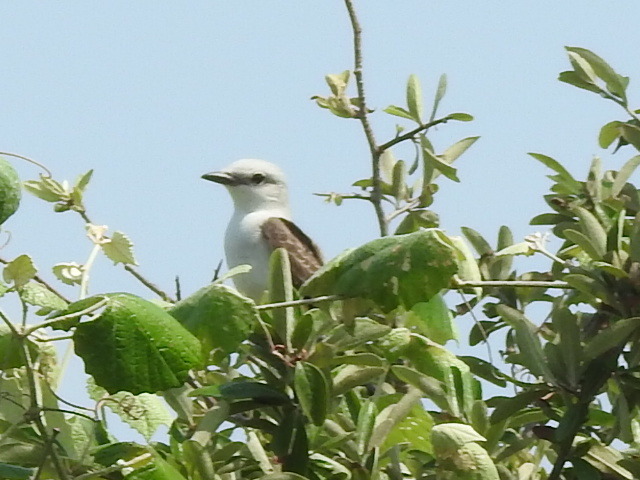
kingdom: Animalia
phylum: Chordata
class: Aves
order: Passeriformes
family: Tyrannidae
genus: Tyrannus
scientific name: Tyrannus forficatus
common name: Scissor-tailed flycatcher
